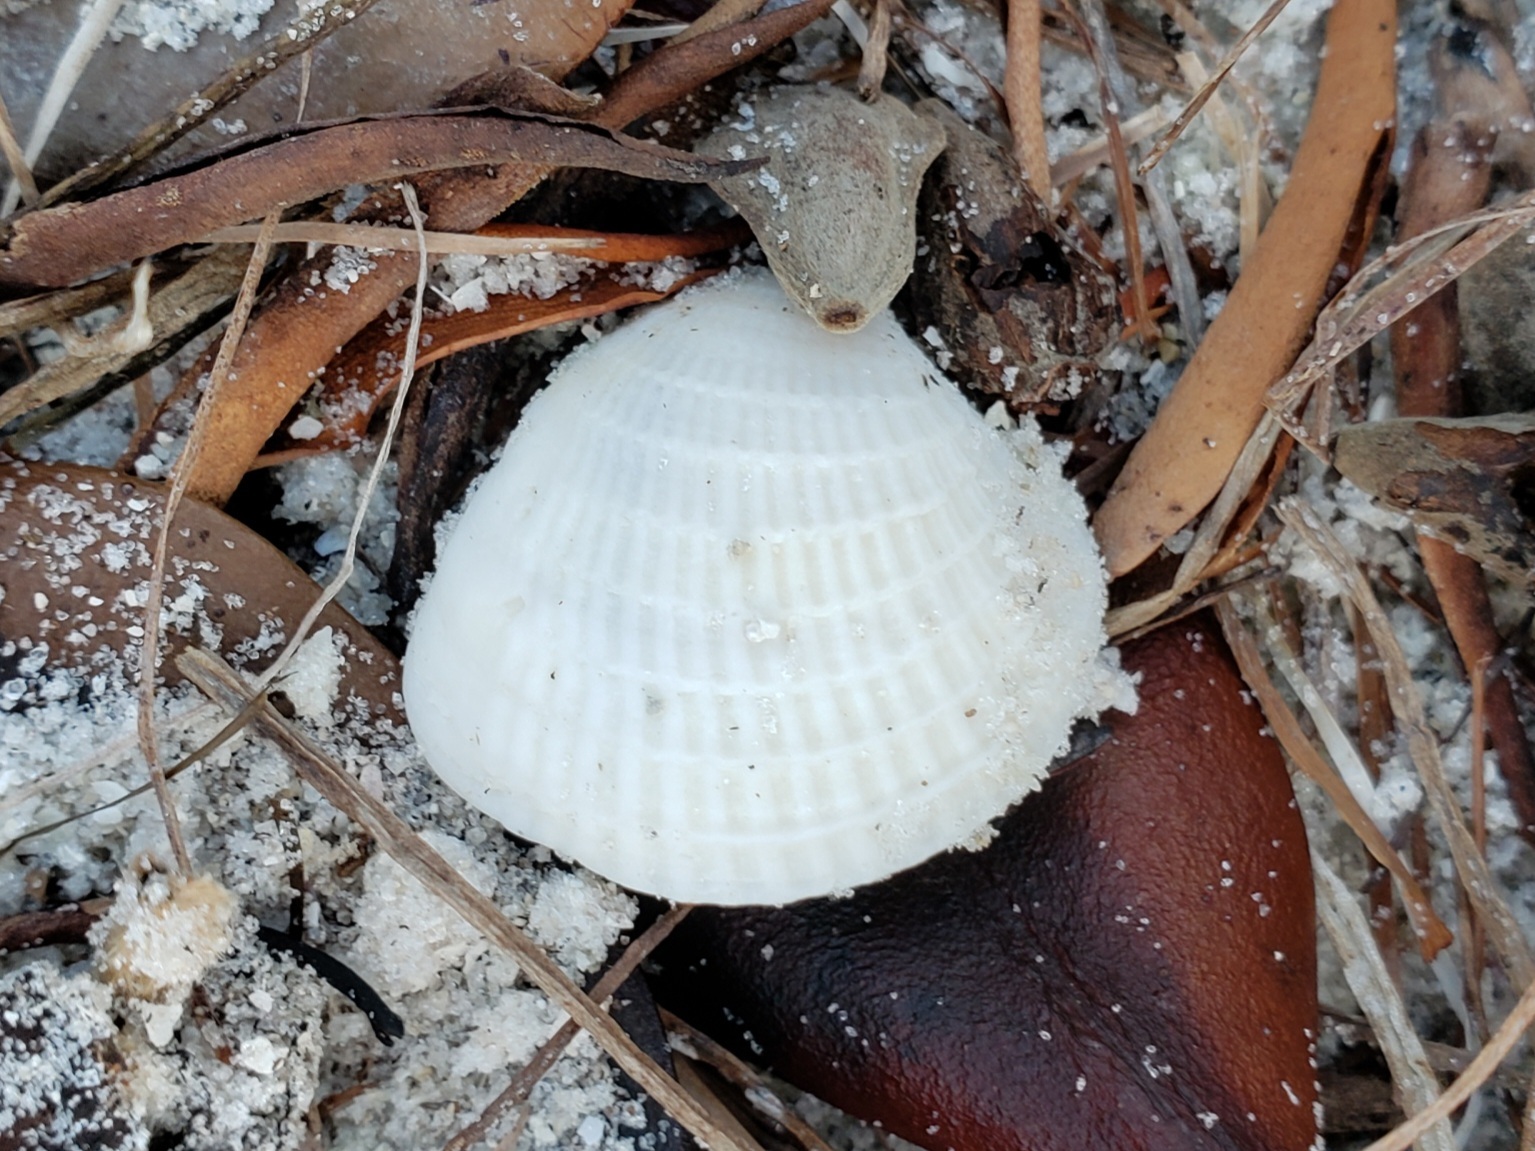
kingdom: Animalia
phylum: Mollusca
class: Bivalvia
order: Venerida
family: Veneridae
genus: Chione
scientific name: Chione elevata
